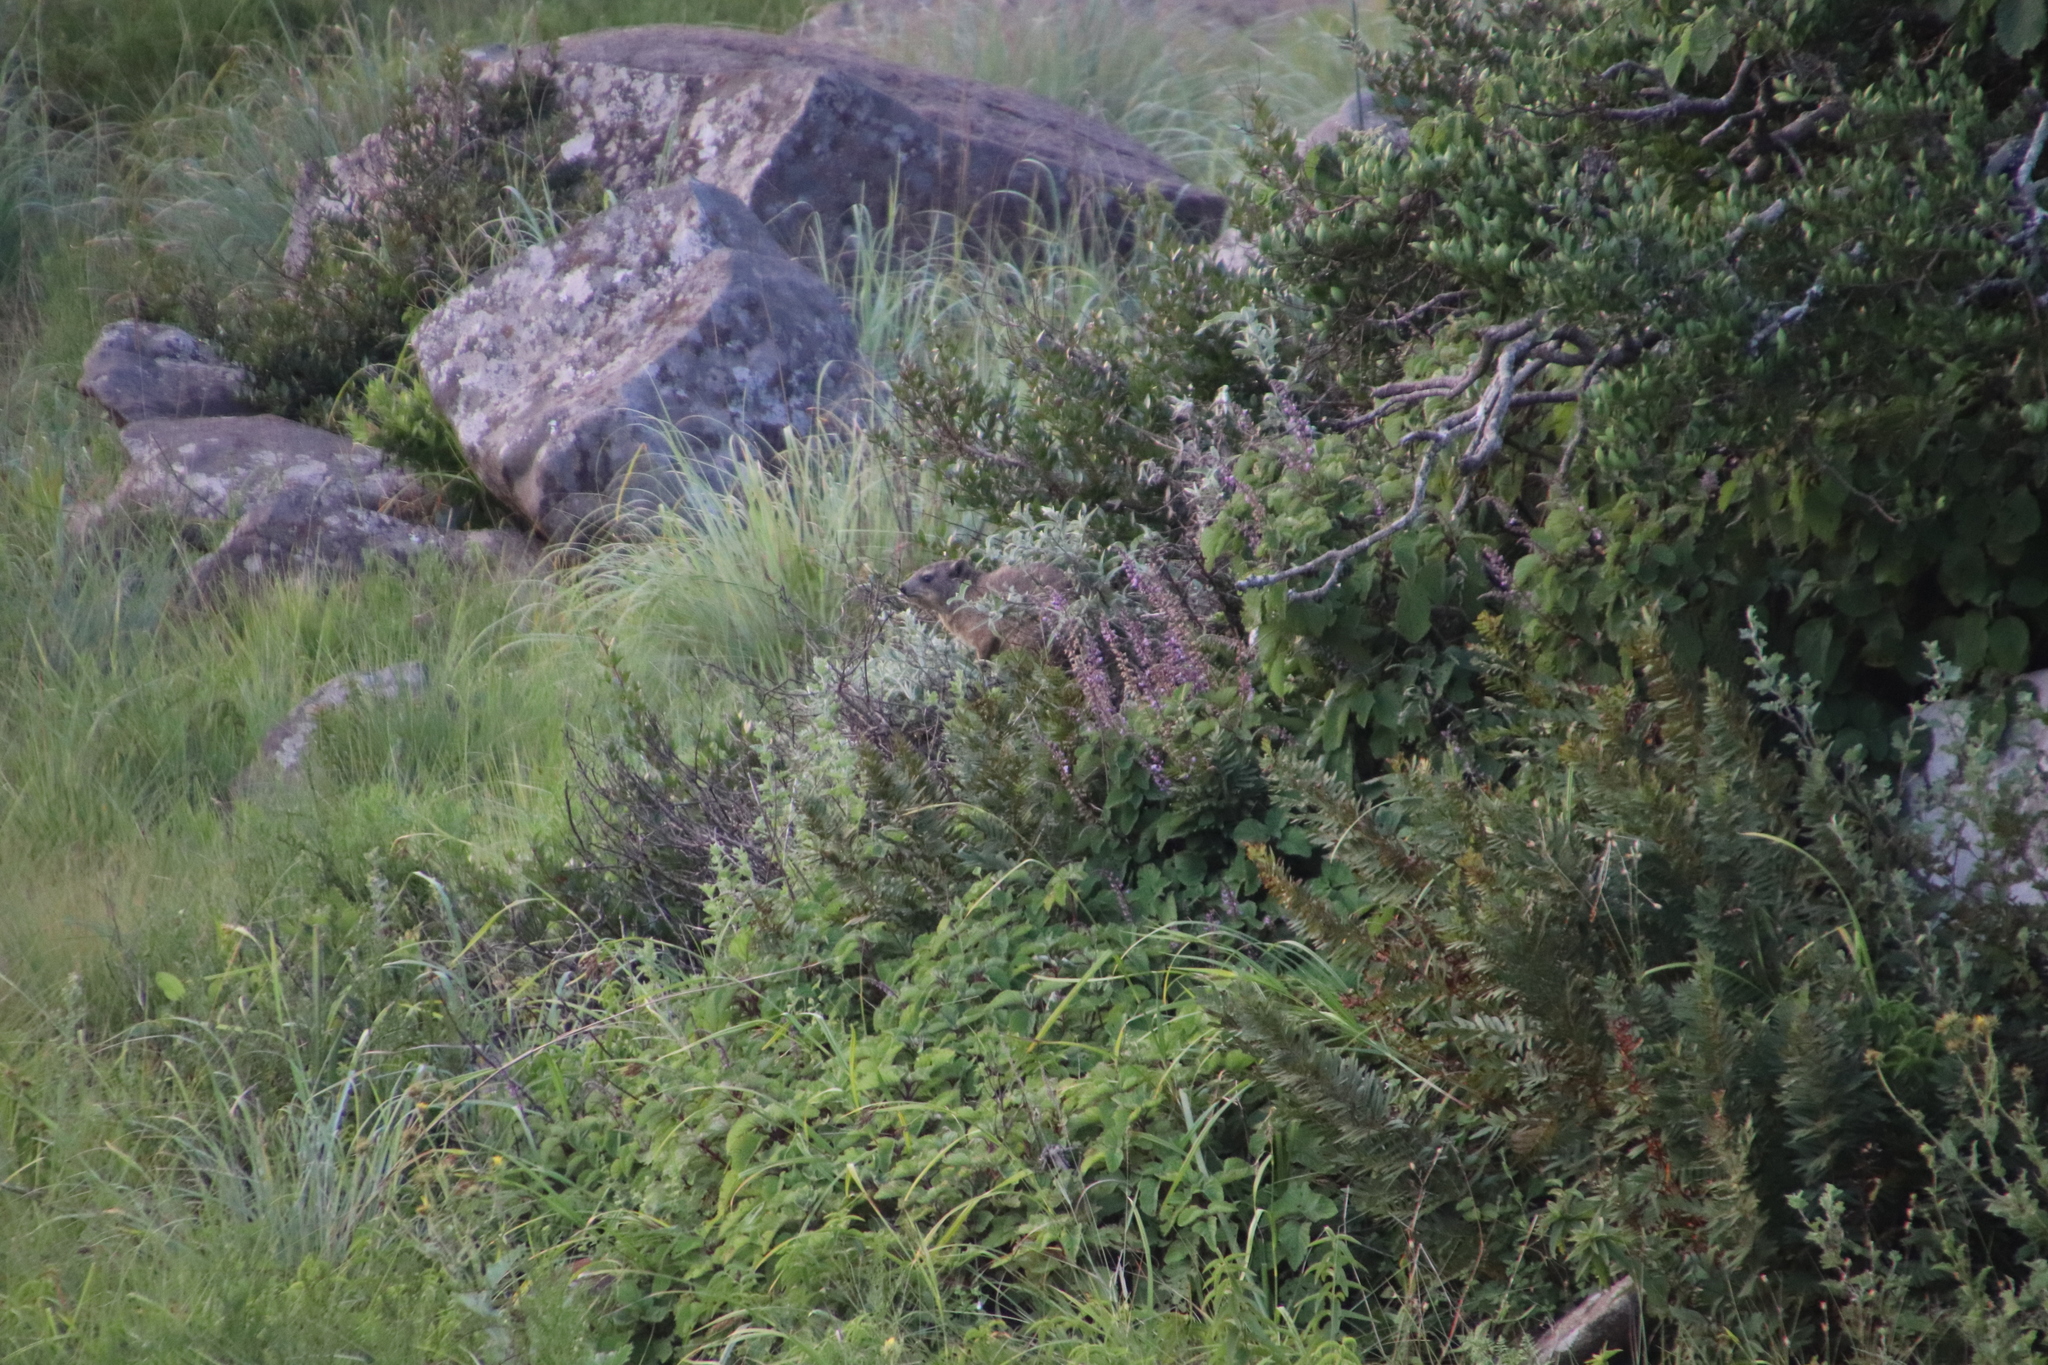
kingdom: Animalia
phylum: Chordata
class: Mammalia
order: Hyracoidea
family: Procaviidae
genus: Procavia
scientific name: Procavia capensis
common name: Rock hyrax
